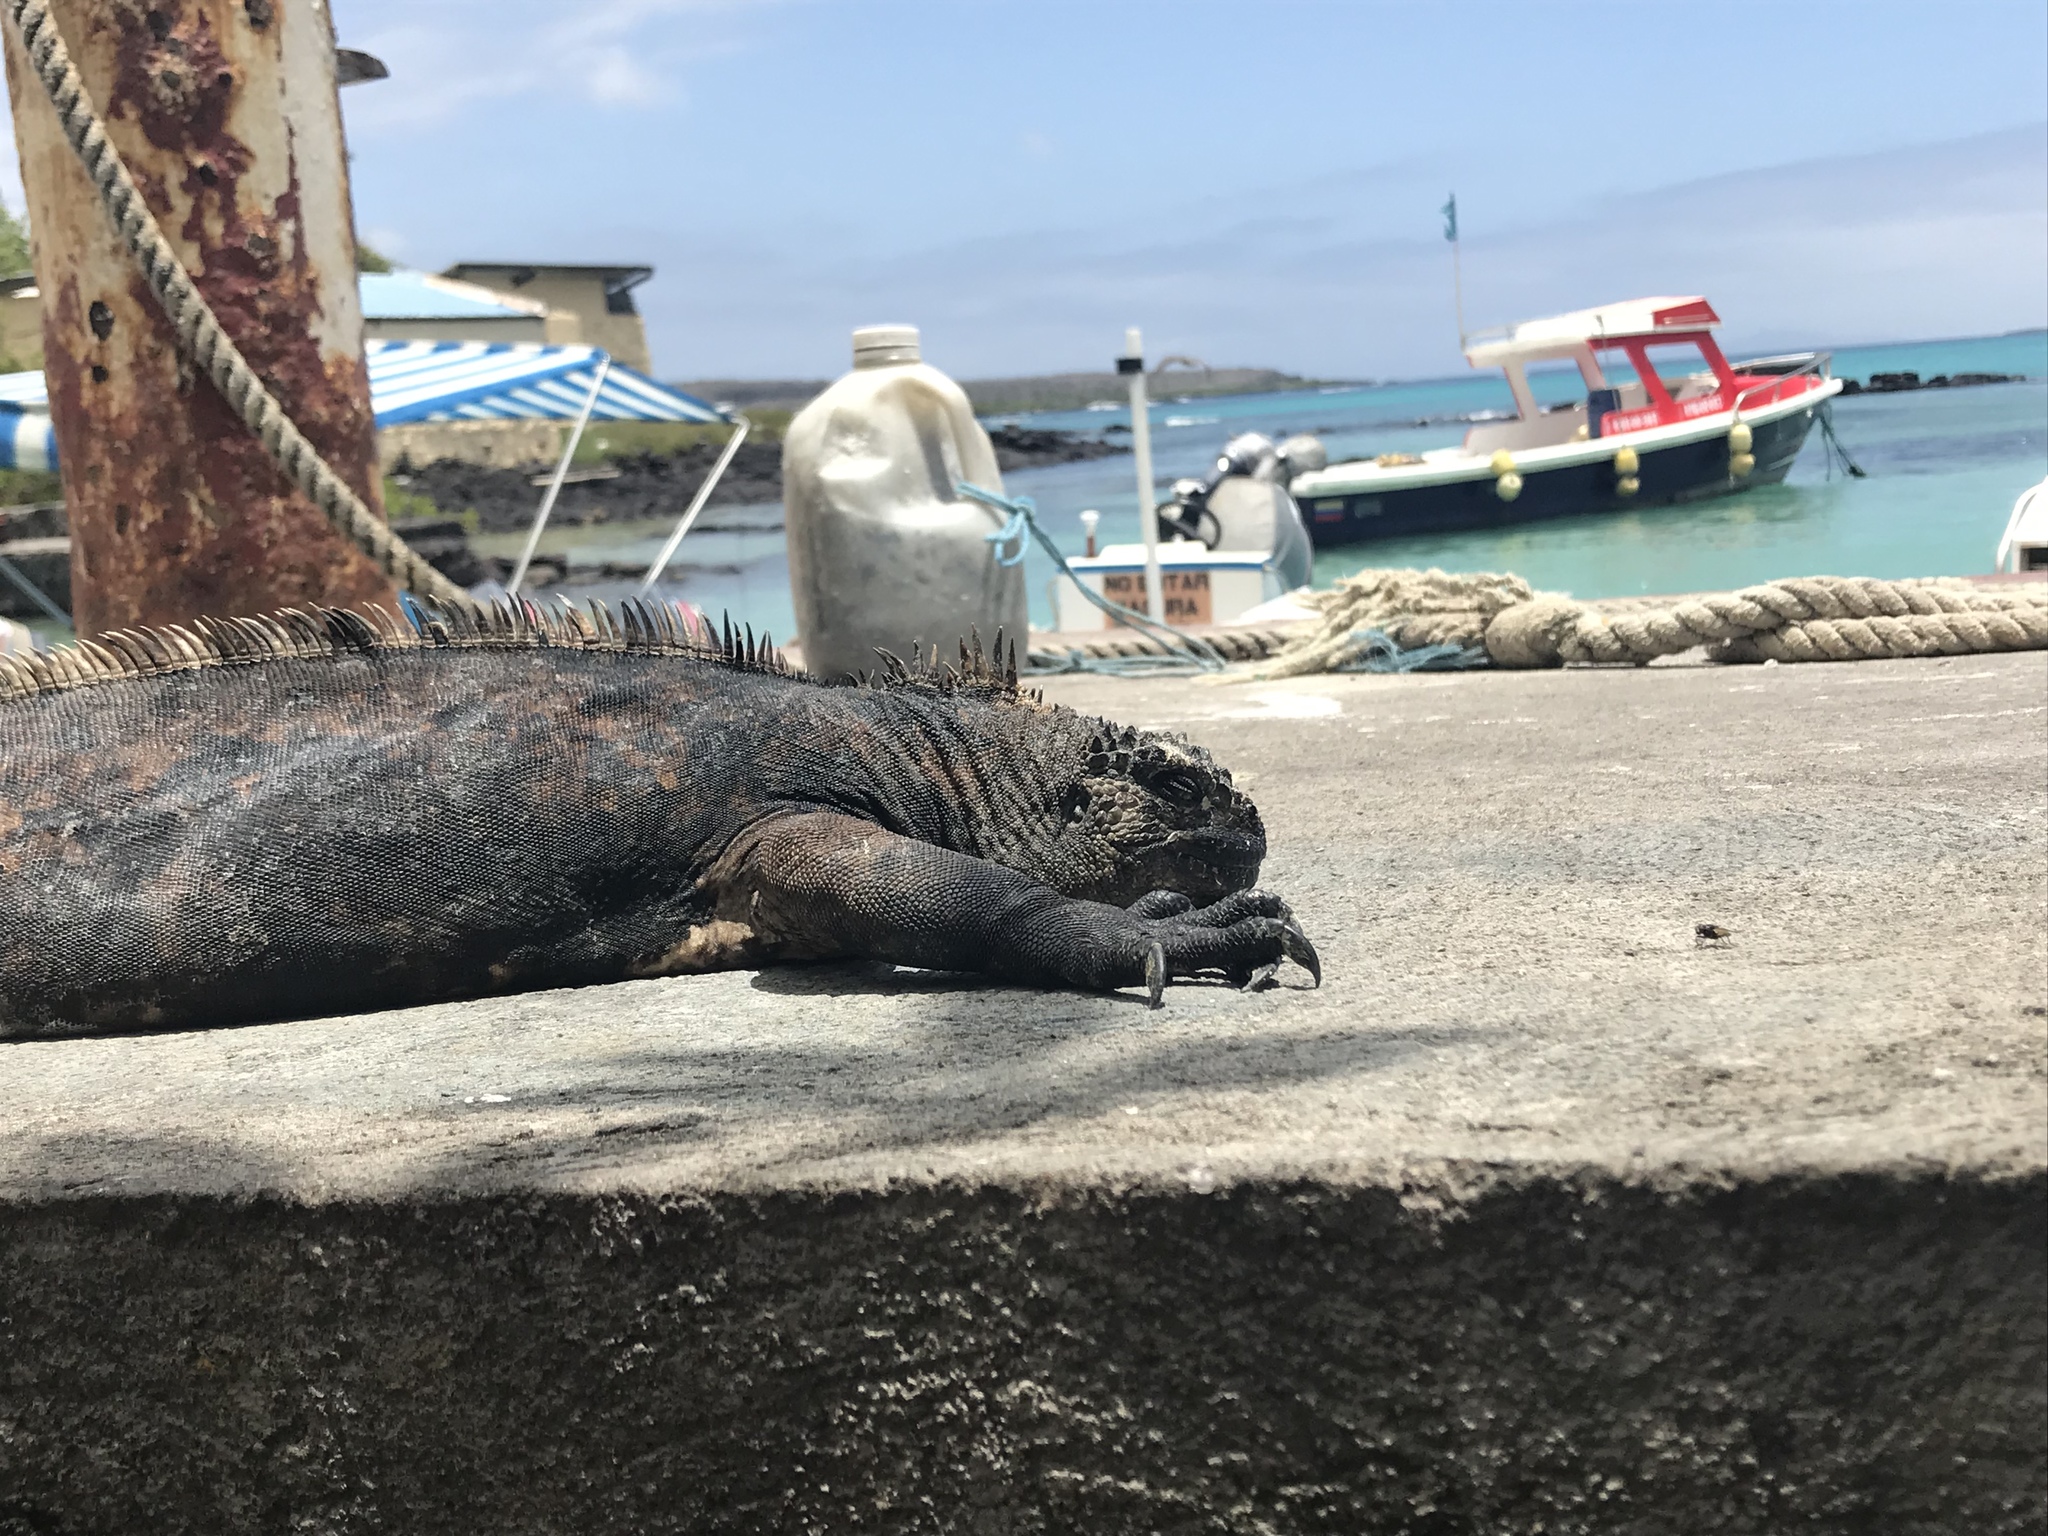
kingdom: Animalia
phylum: Chordata
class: Squamata
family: Iguanidae
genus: Amblyrhynchus
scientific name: Amblyrhynchus cristatus
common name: Marine iguana
